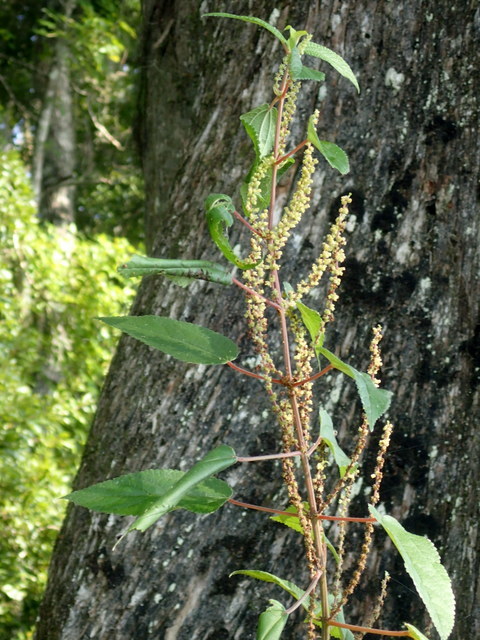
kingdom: Plantae
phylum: Tracheophyta
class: Magnoliopsida
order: Rosales
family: Urticaceae
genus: Boehmeria
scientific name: Boehmeria cylindrica
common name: Bog-hemp
